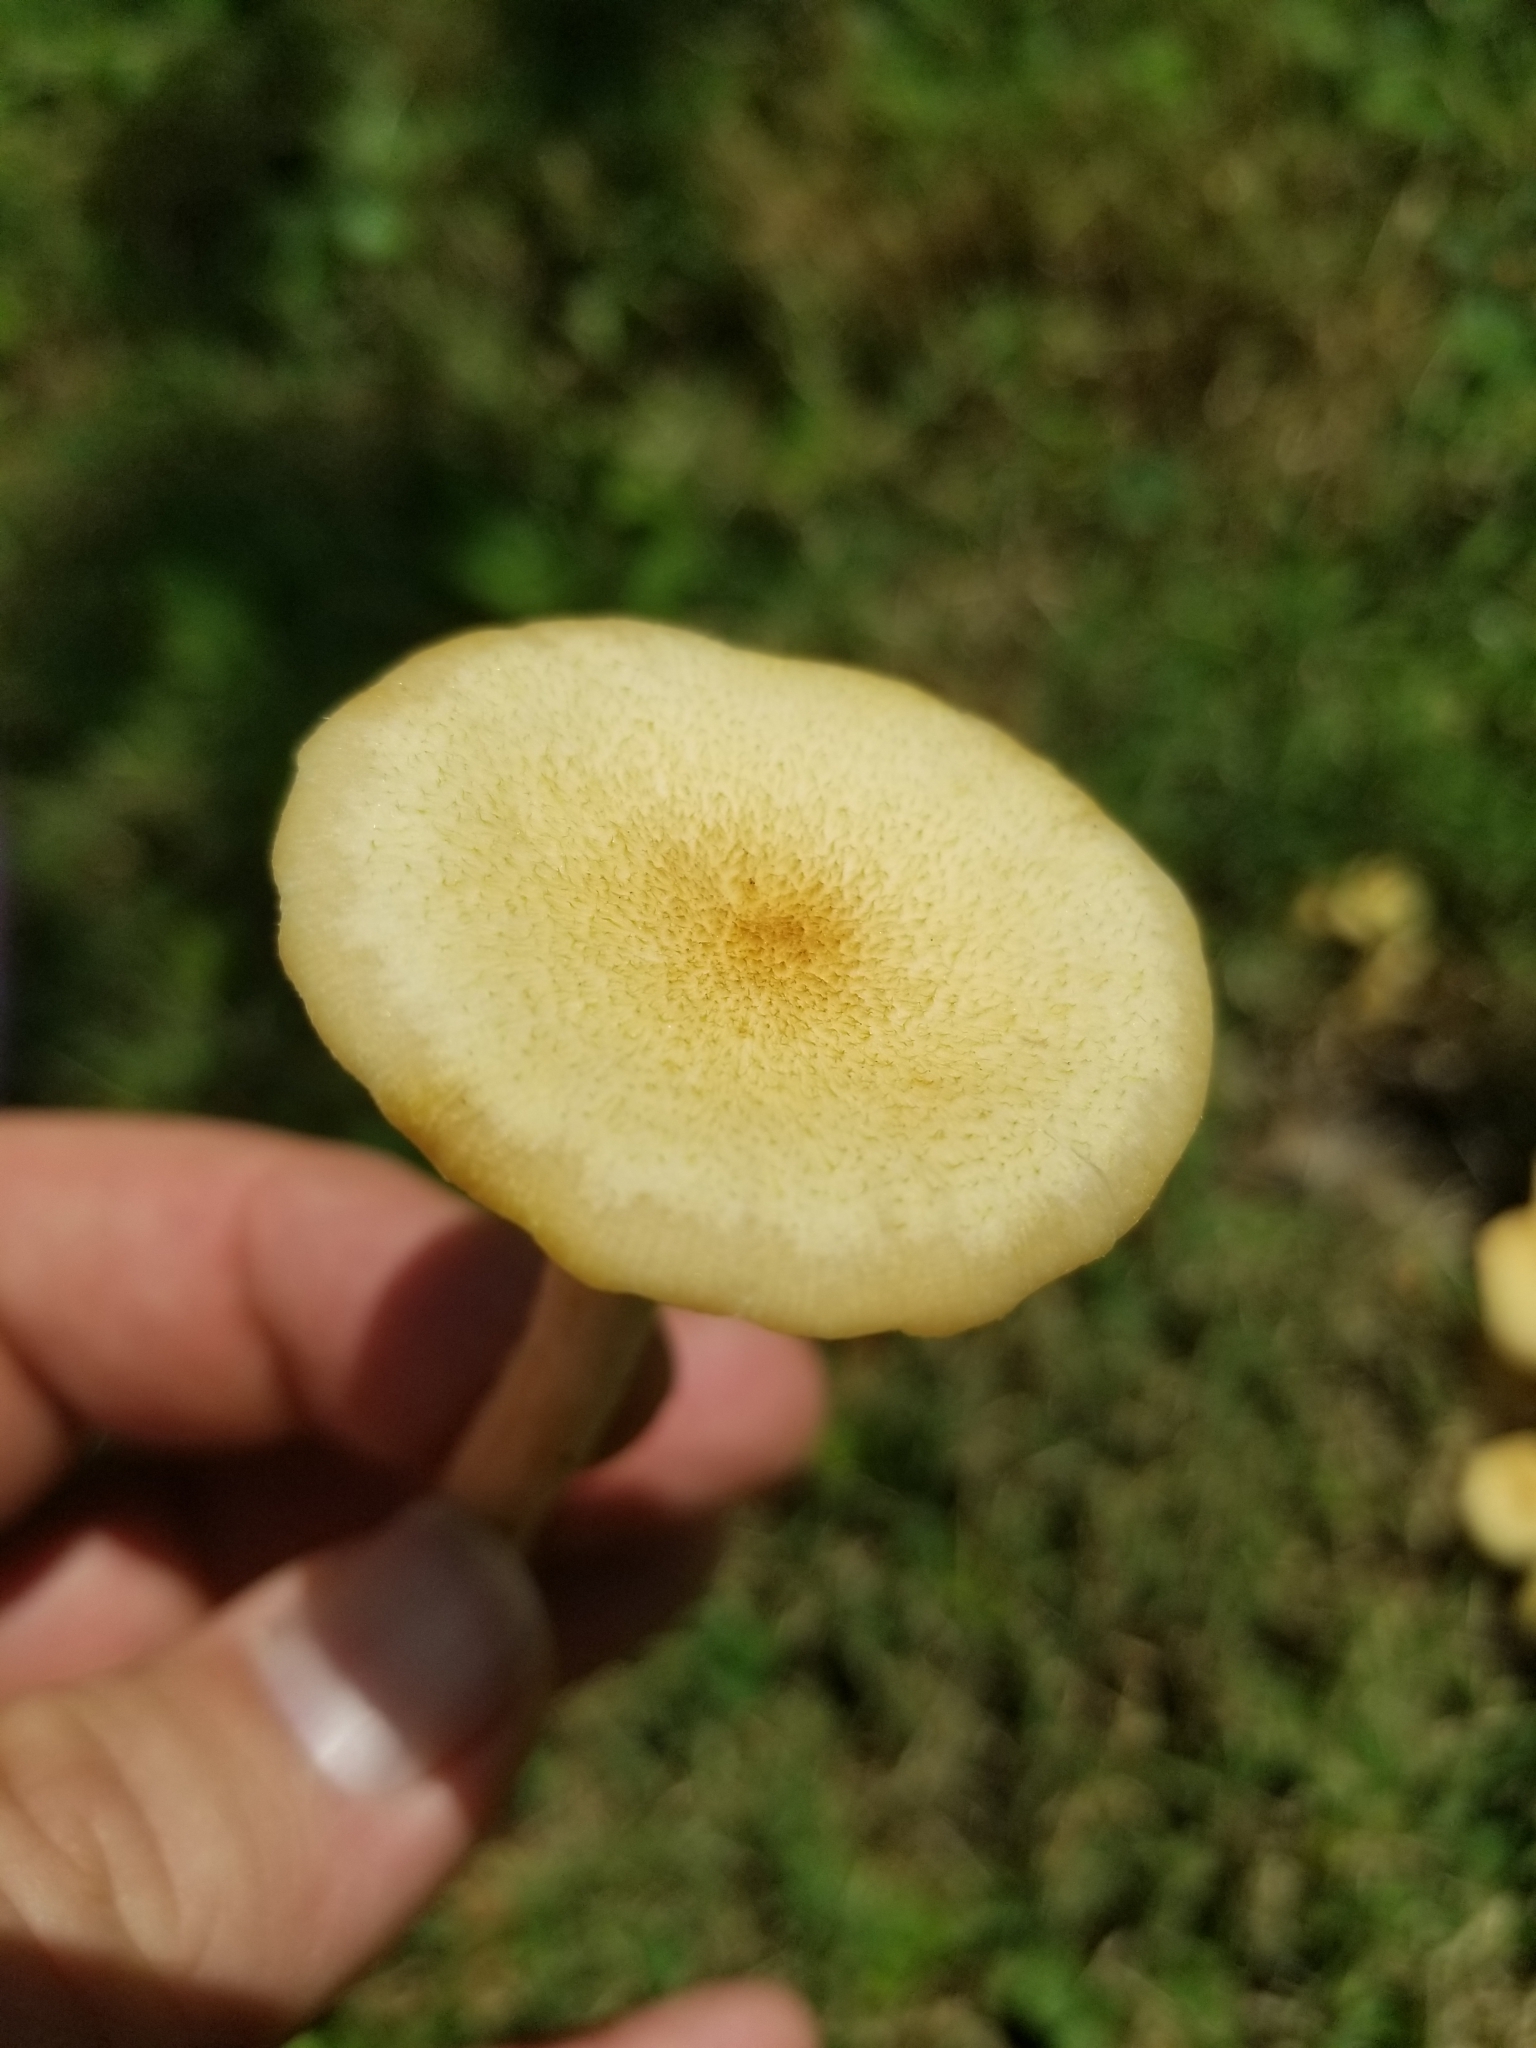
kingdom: Fungi
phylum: Basidiomycota
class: Agaricomycetes
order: Agaricales
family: Pleurotaceae
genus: Pleurotus
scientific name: Pleurotus citrinopileatus
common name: Golden oyster mushroom
